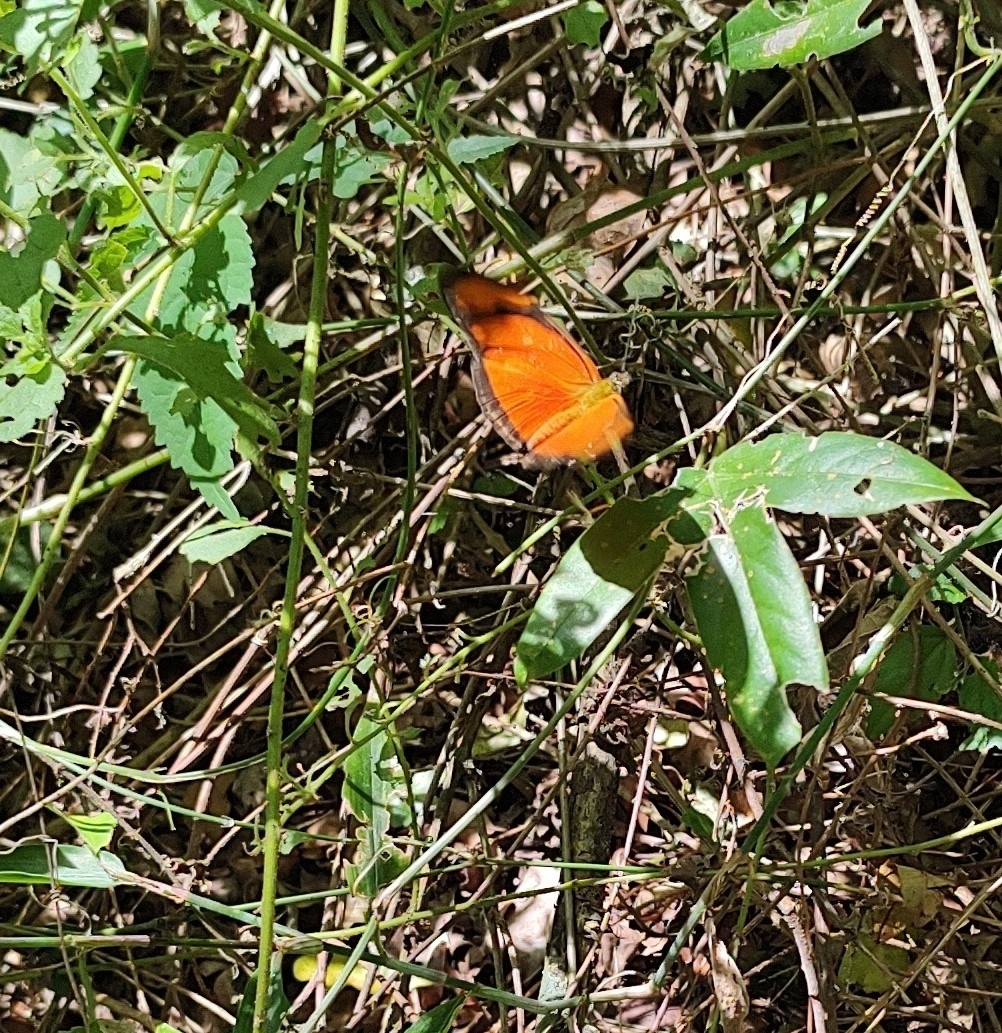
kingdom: Animalia
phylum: Arthropoda
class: Insecta
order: Lepidoptera
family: Nymphalidae
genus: Dryas
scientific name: Dryas iulia
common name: Flambeau
